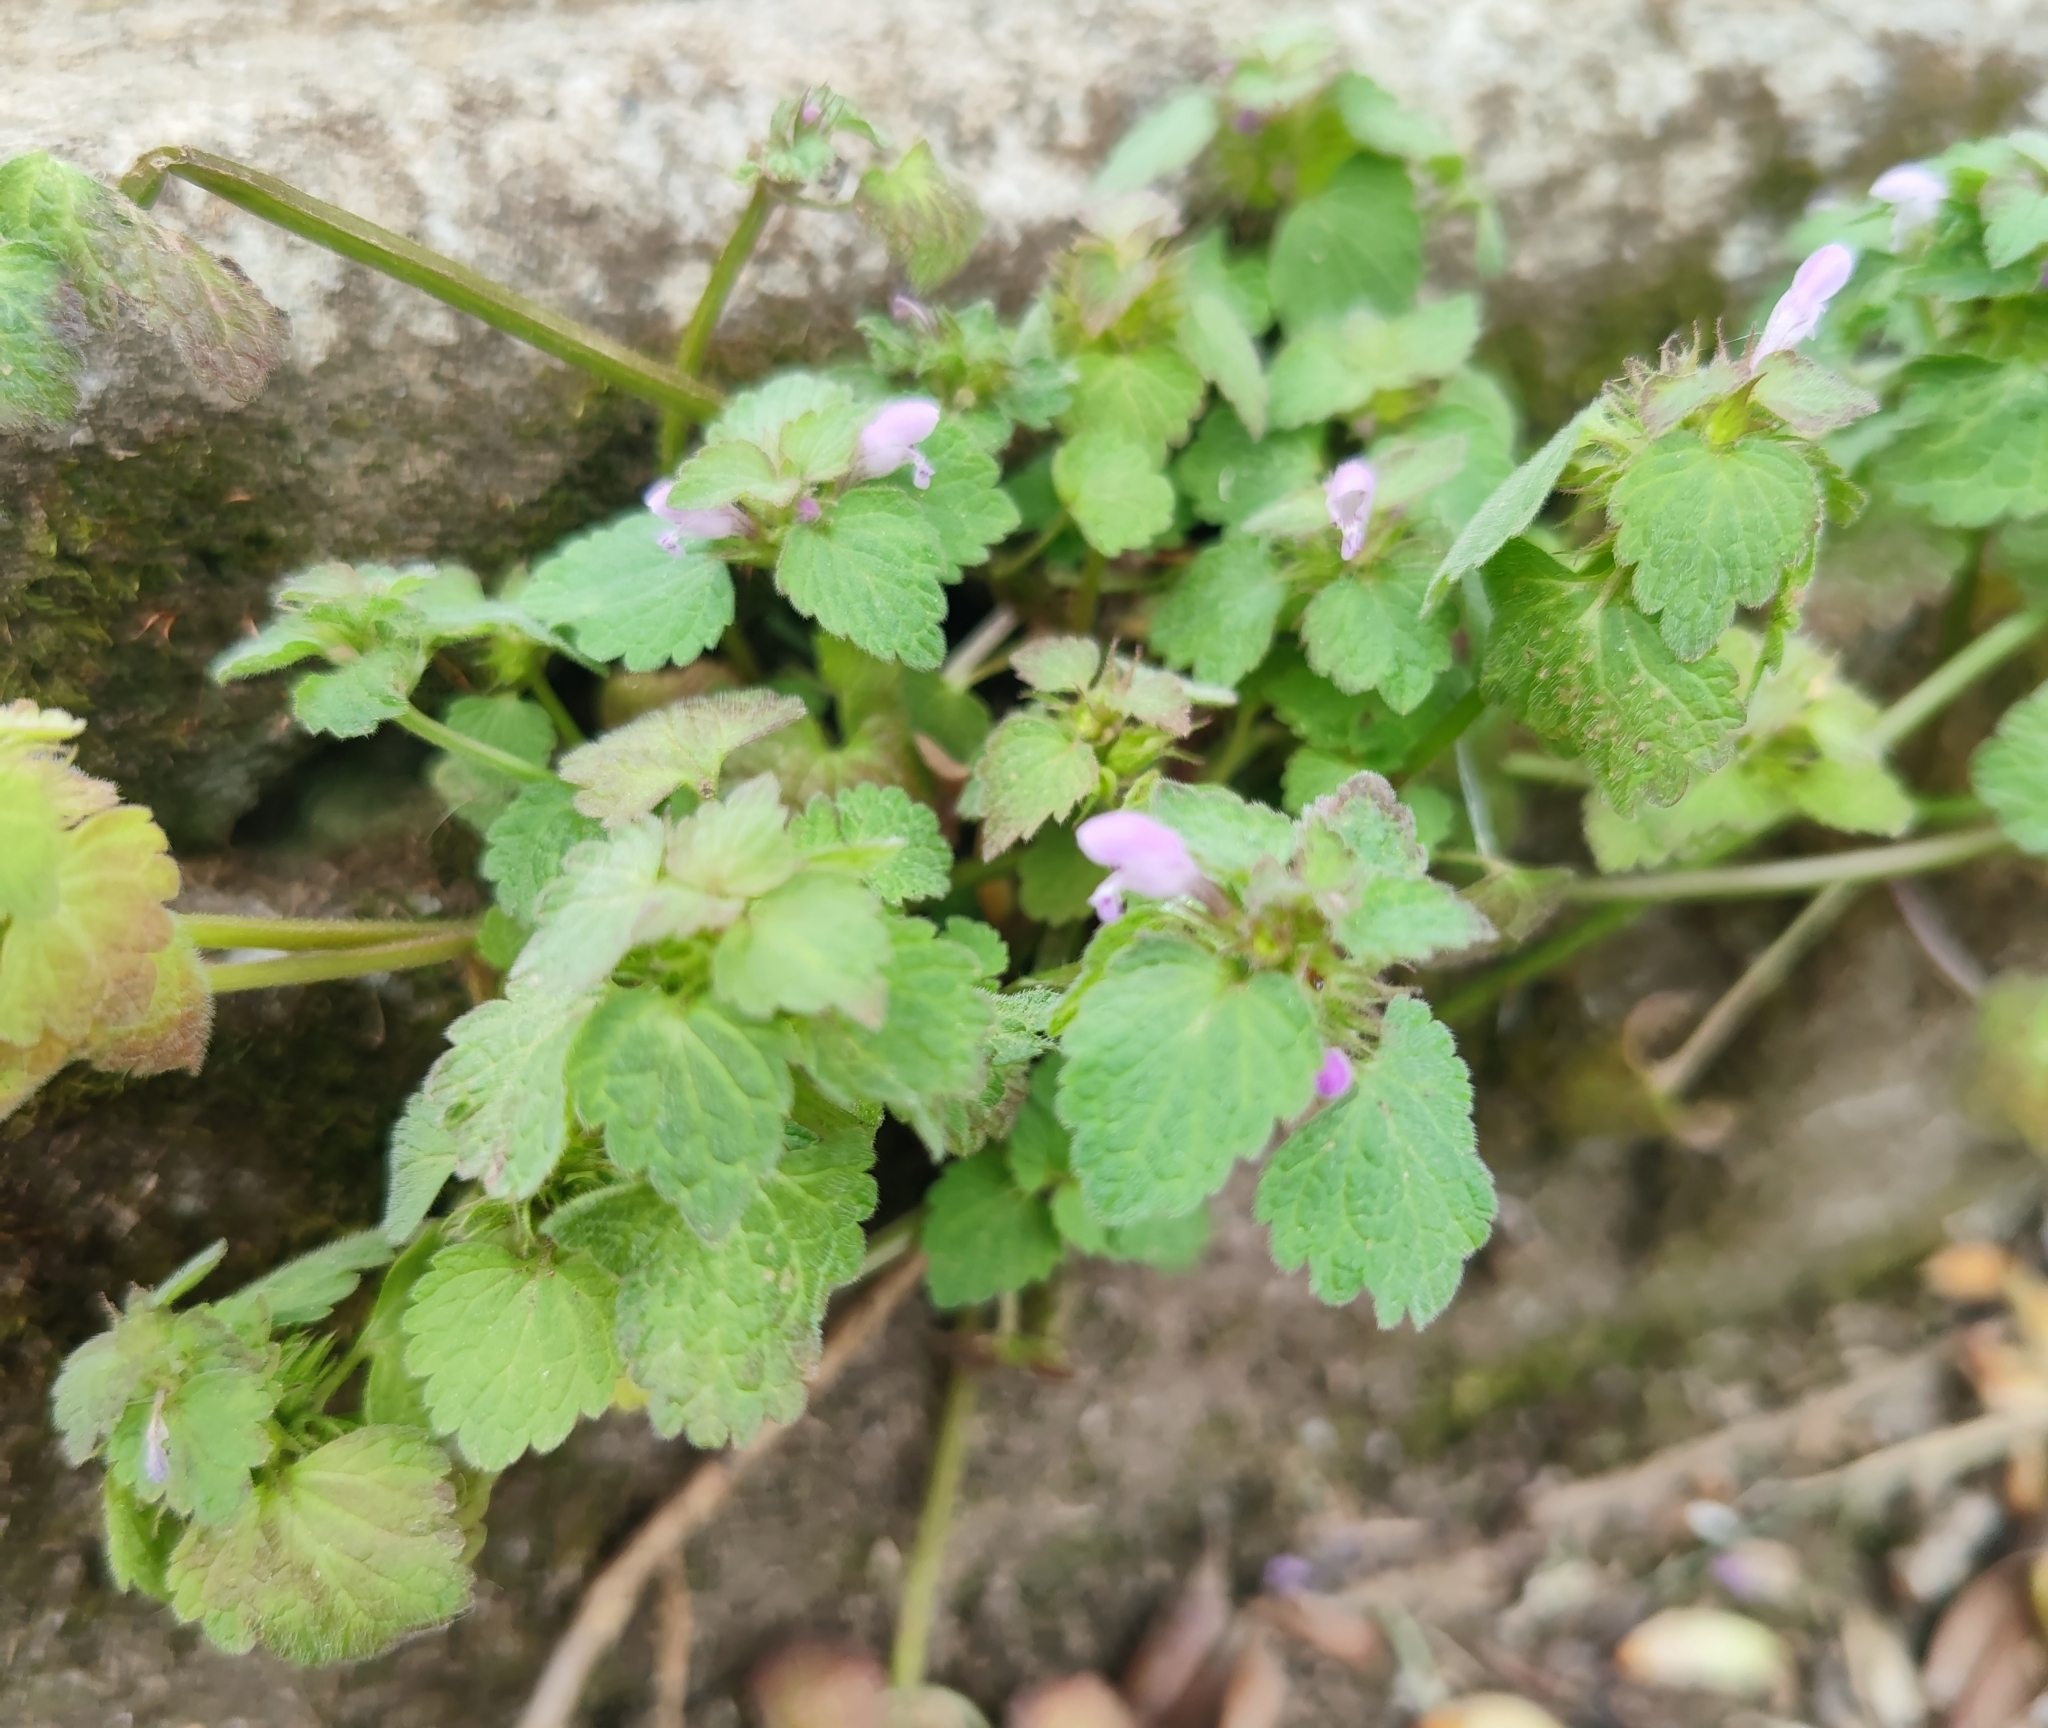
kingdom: Plantae
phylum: Tracheophyta
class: Magnoliopsida
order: Lamiales
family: Lamiaceae
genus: Lamium
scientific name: Lamium purpureum
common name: Red dead-nettle
